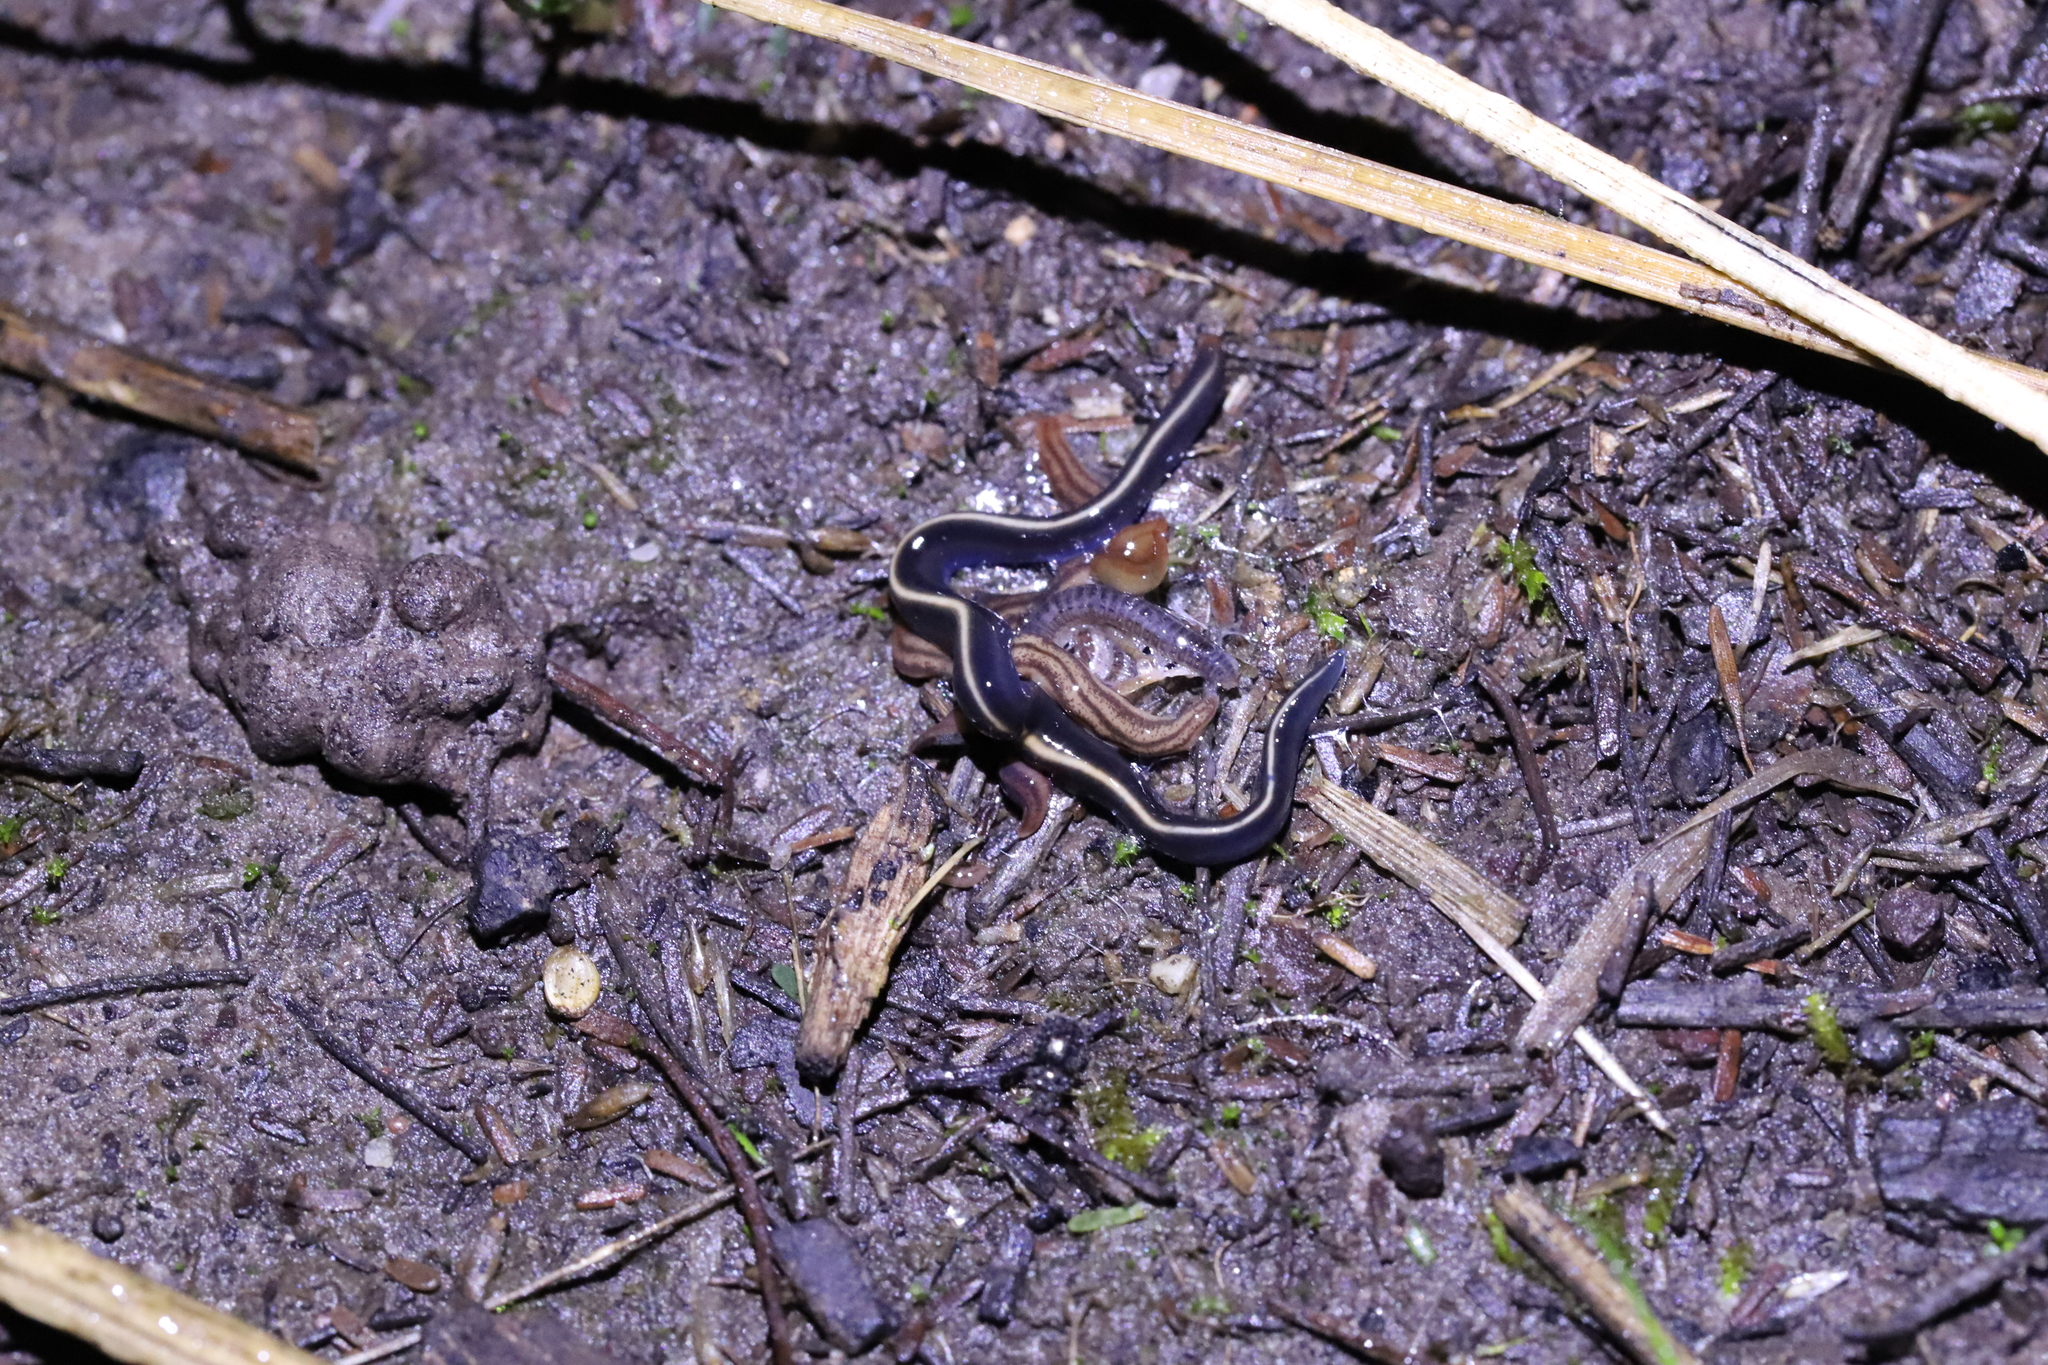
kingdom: Animalia
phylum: Platyhelminthes
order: Tricladida
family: Geoplanidae
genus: Caenoplana
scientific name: Caenoplana coerulea
